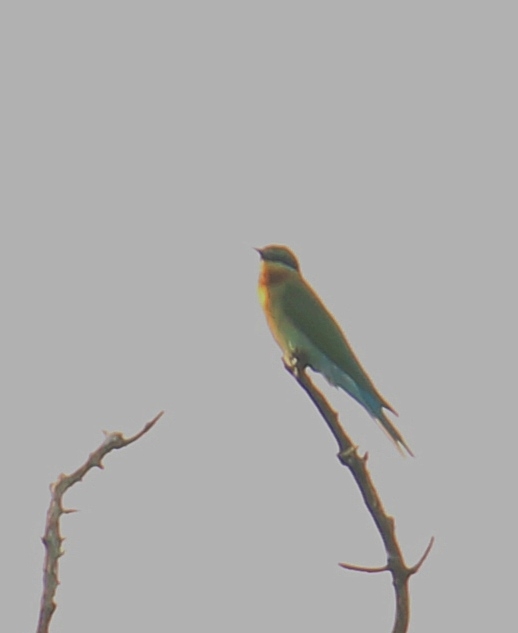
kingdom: Animalia
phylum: Chordata
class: Aves
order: Coraciiformes
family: Meropidae
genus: Merops
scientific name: Merops philippinus
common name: Blue-tailed bee-eater
